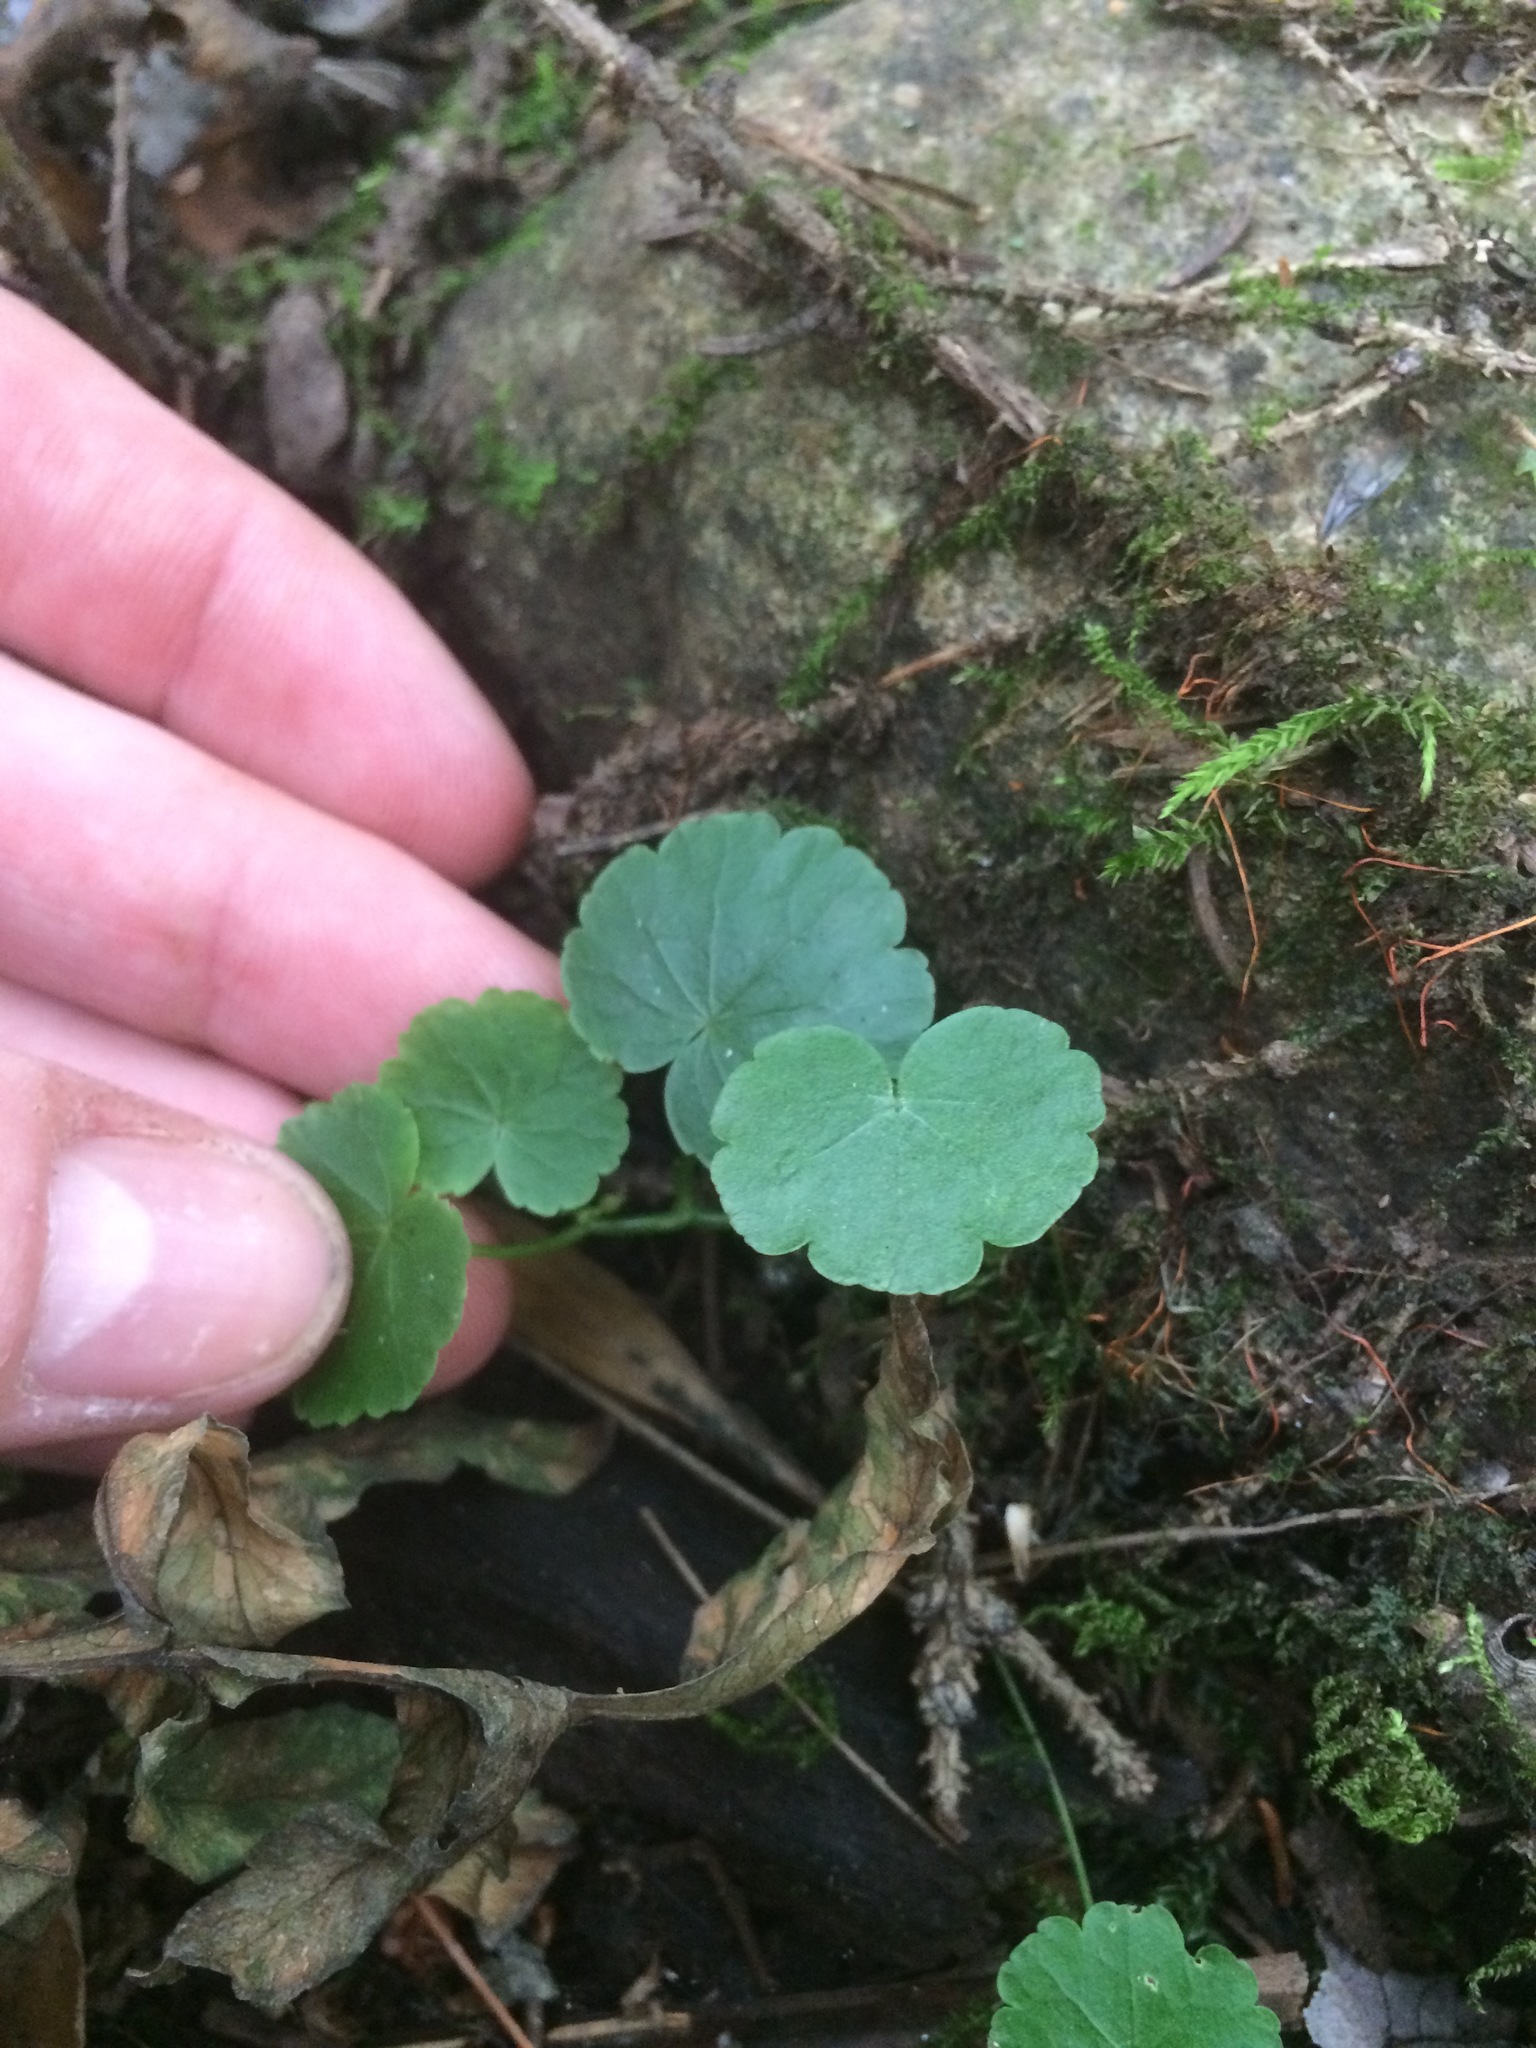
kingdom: Plantae
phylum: Tracheophyta
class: Magnoliopsida
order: Apiales
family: Araliaceae
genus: Hydrocotyle
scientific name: Hydrocotyle americana
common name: American water-pennywort
